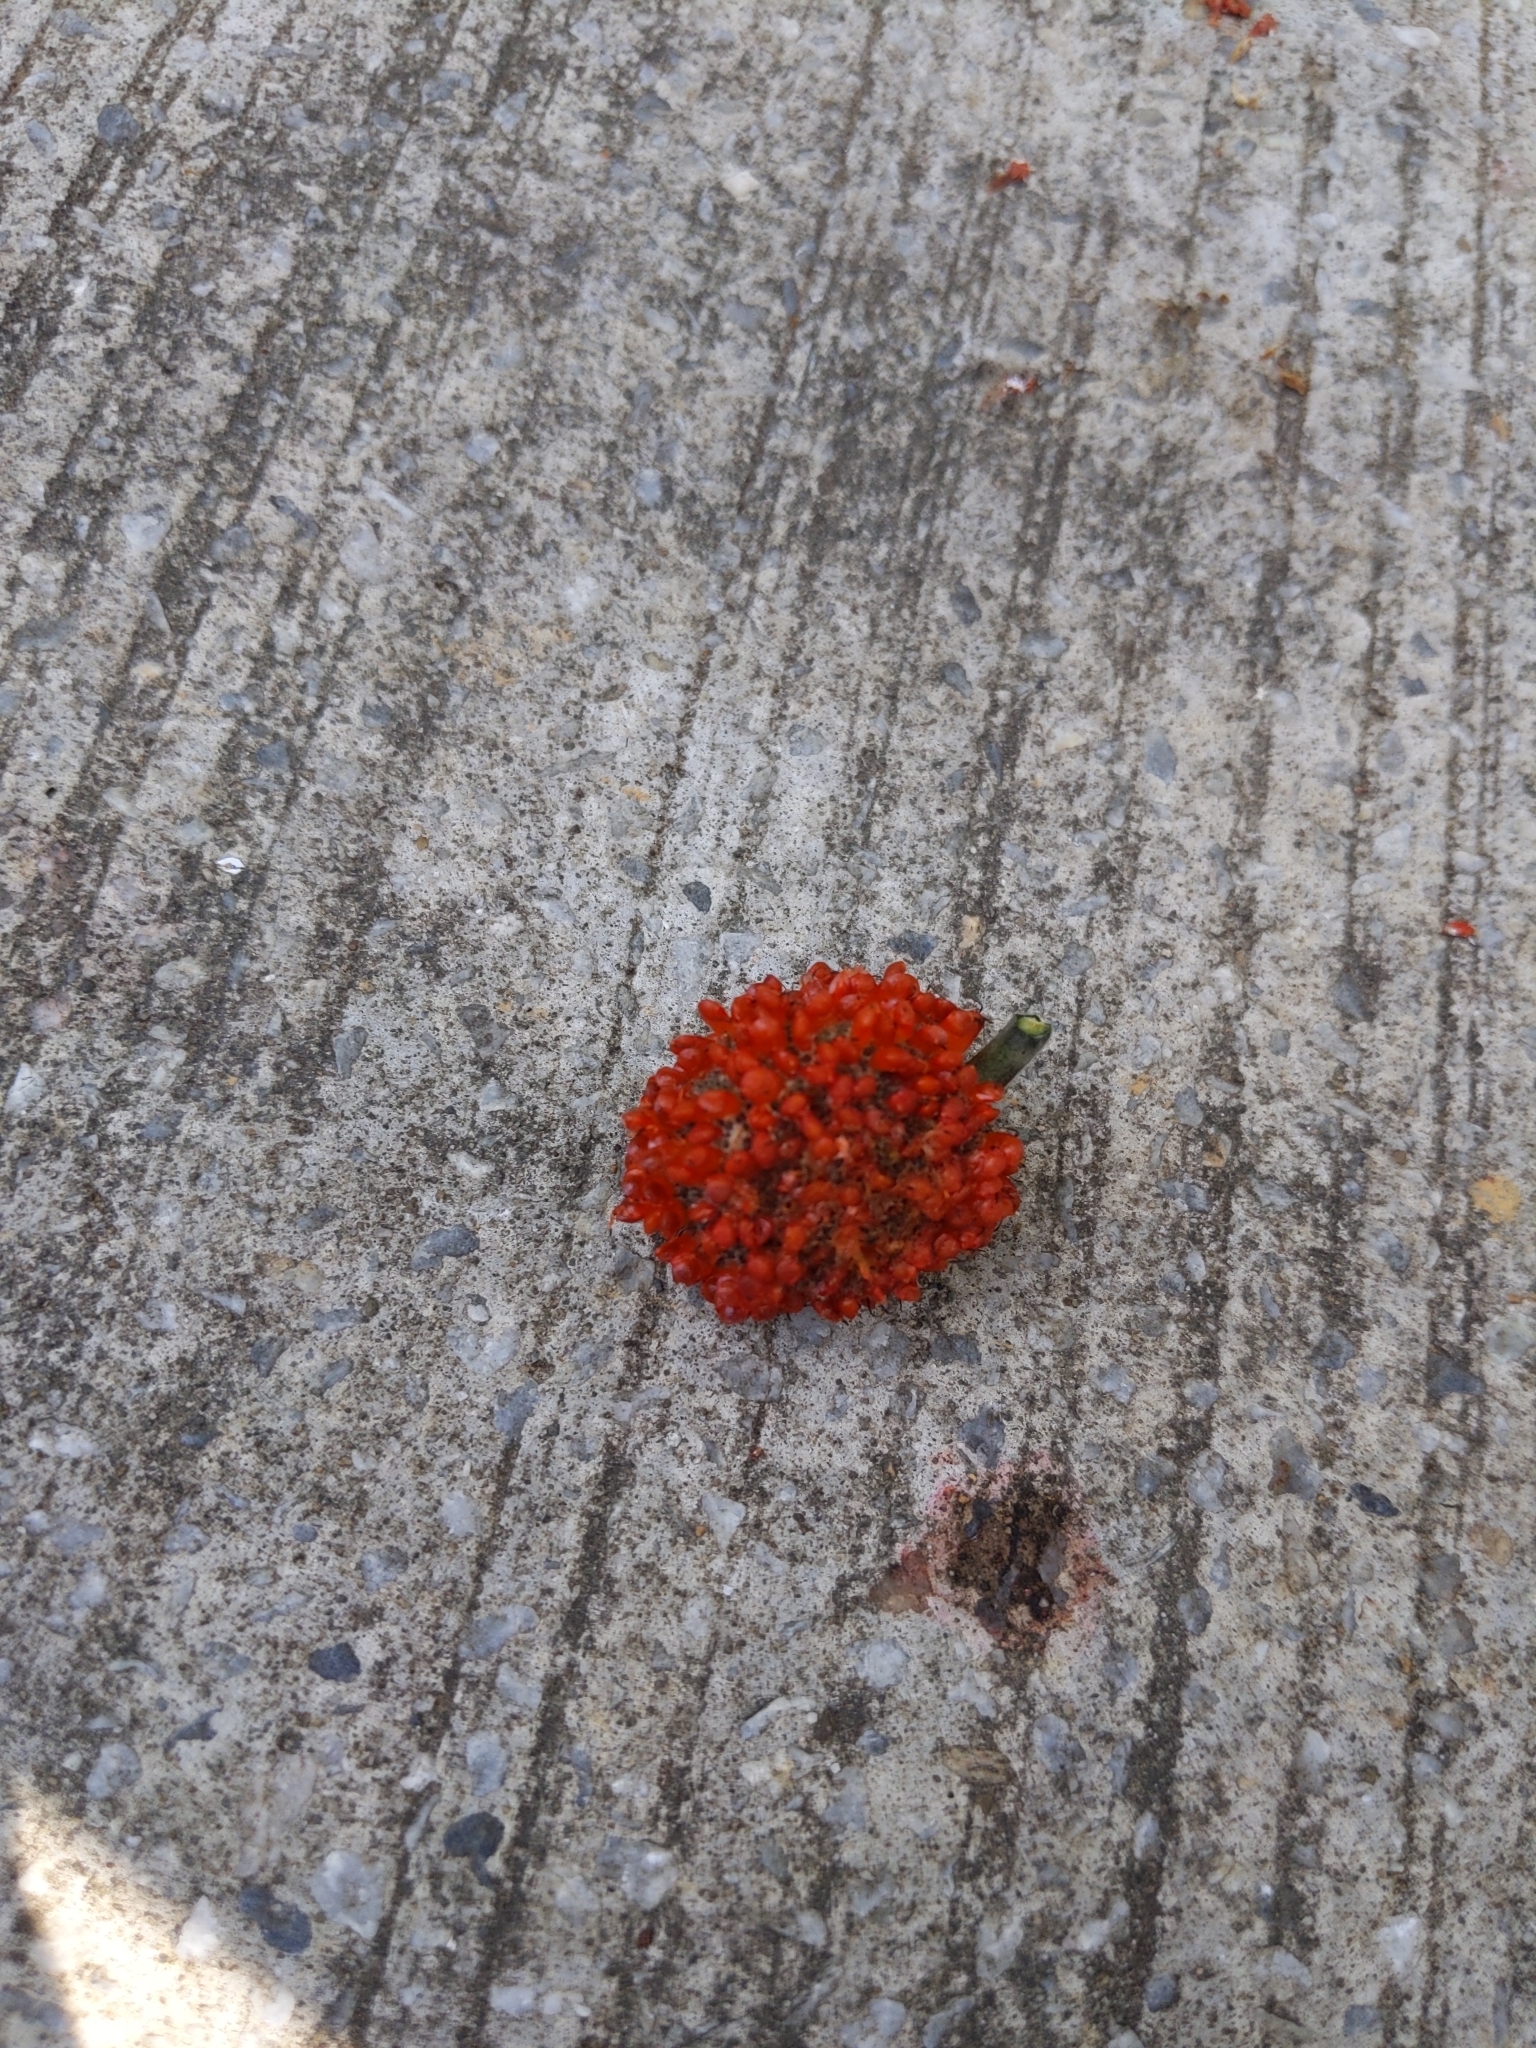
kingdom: Plantae
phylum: Tracheophyta
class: Magnoliopsida
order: Rosales
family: Moraceae
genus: Broussonetia
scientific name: Broussonetia papyrifera
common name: Paper mulberry
